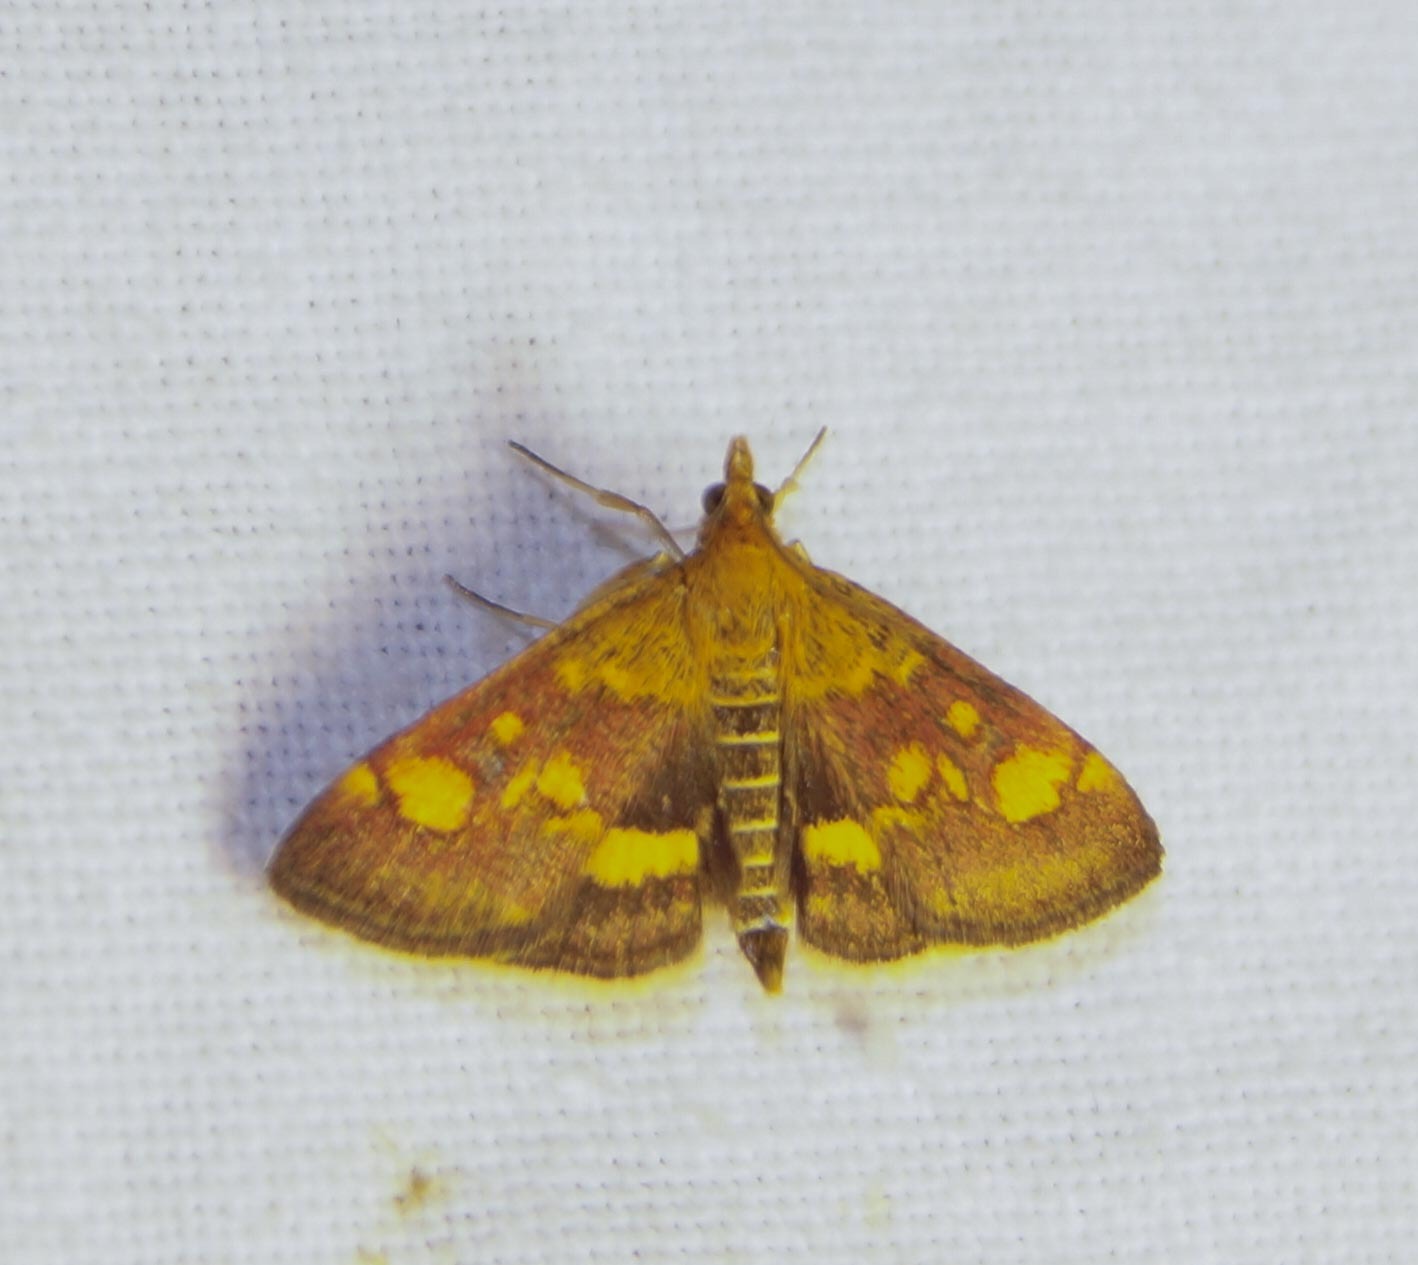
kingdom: Animalia
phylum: Arthropoda
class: Insecta
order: Lepidoptera
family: Crambidae
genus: Pyrausta
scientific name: Pyrausta aurata
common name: Small purple & gold
